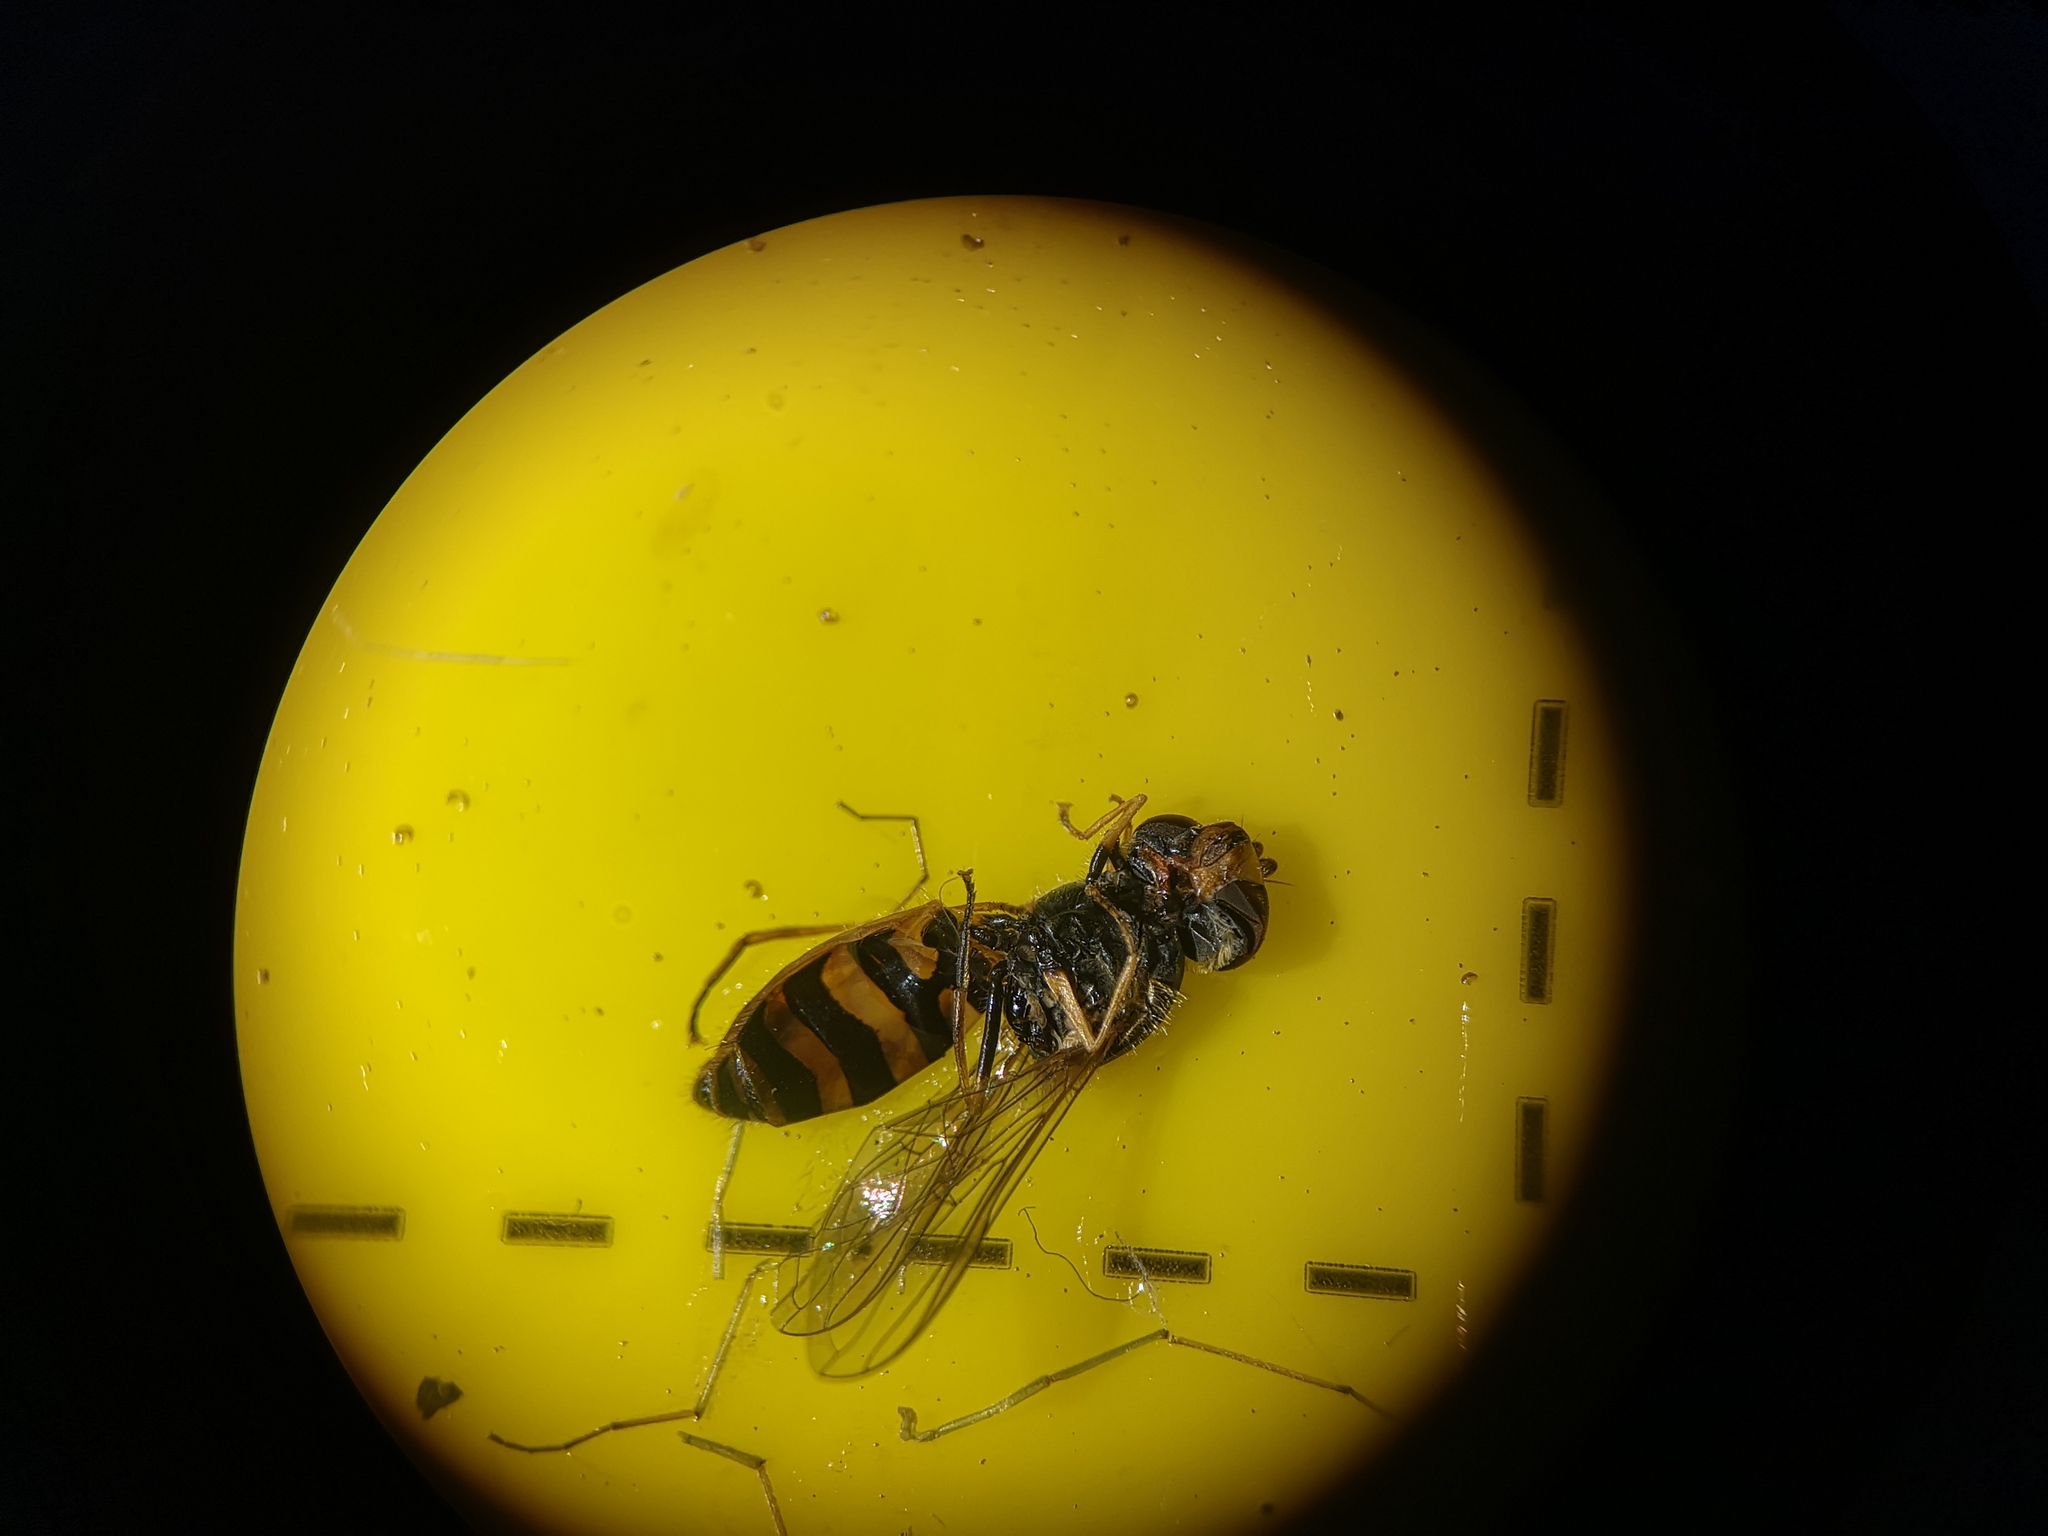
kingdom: Animalia
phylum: Arthropoda
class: Insecta
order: Diptera
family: Syrphidae
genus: Syrphus
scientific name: Syrphus
